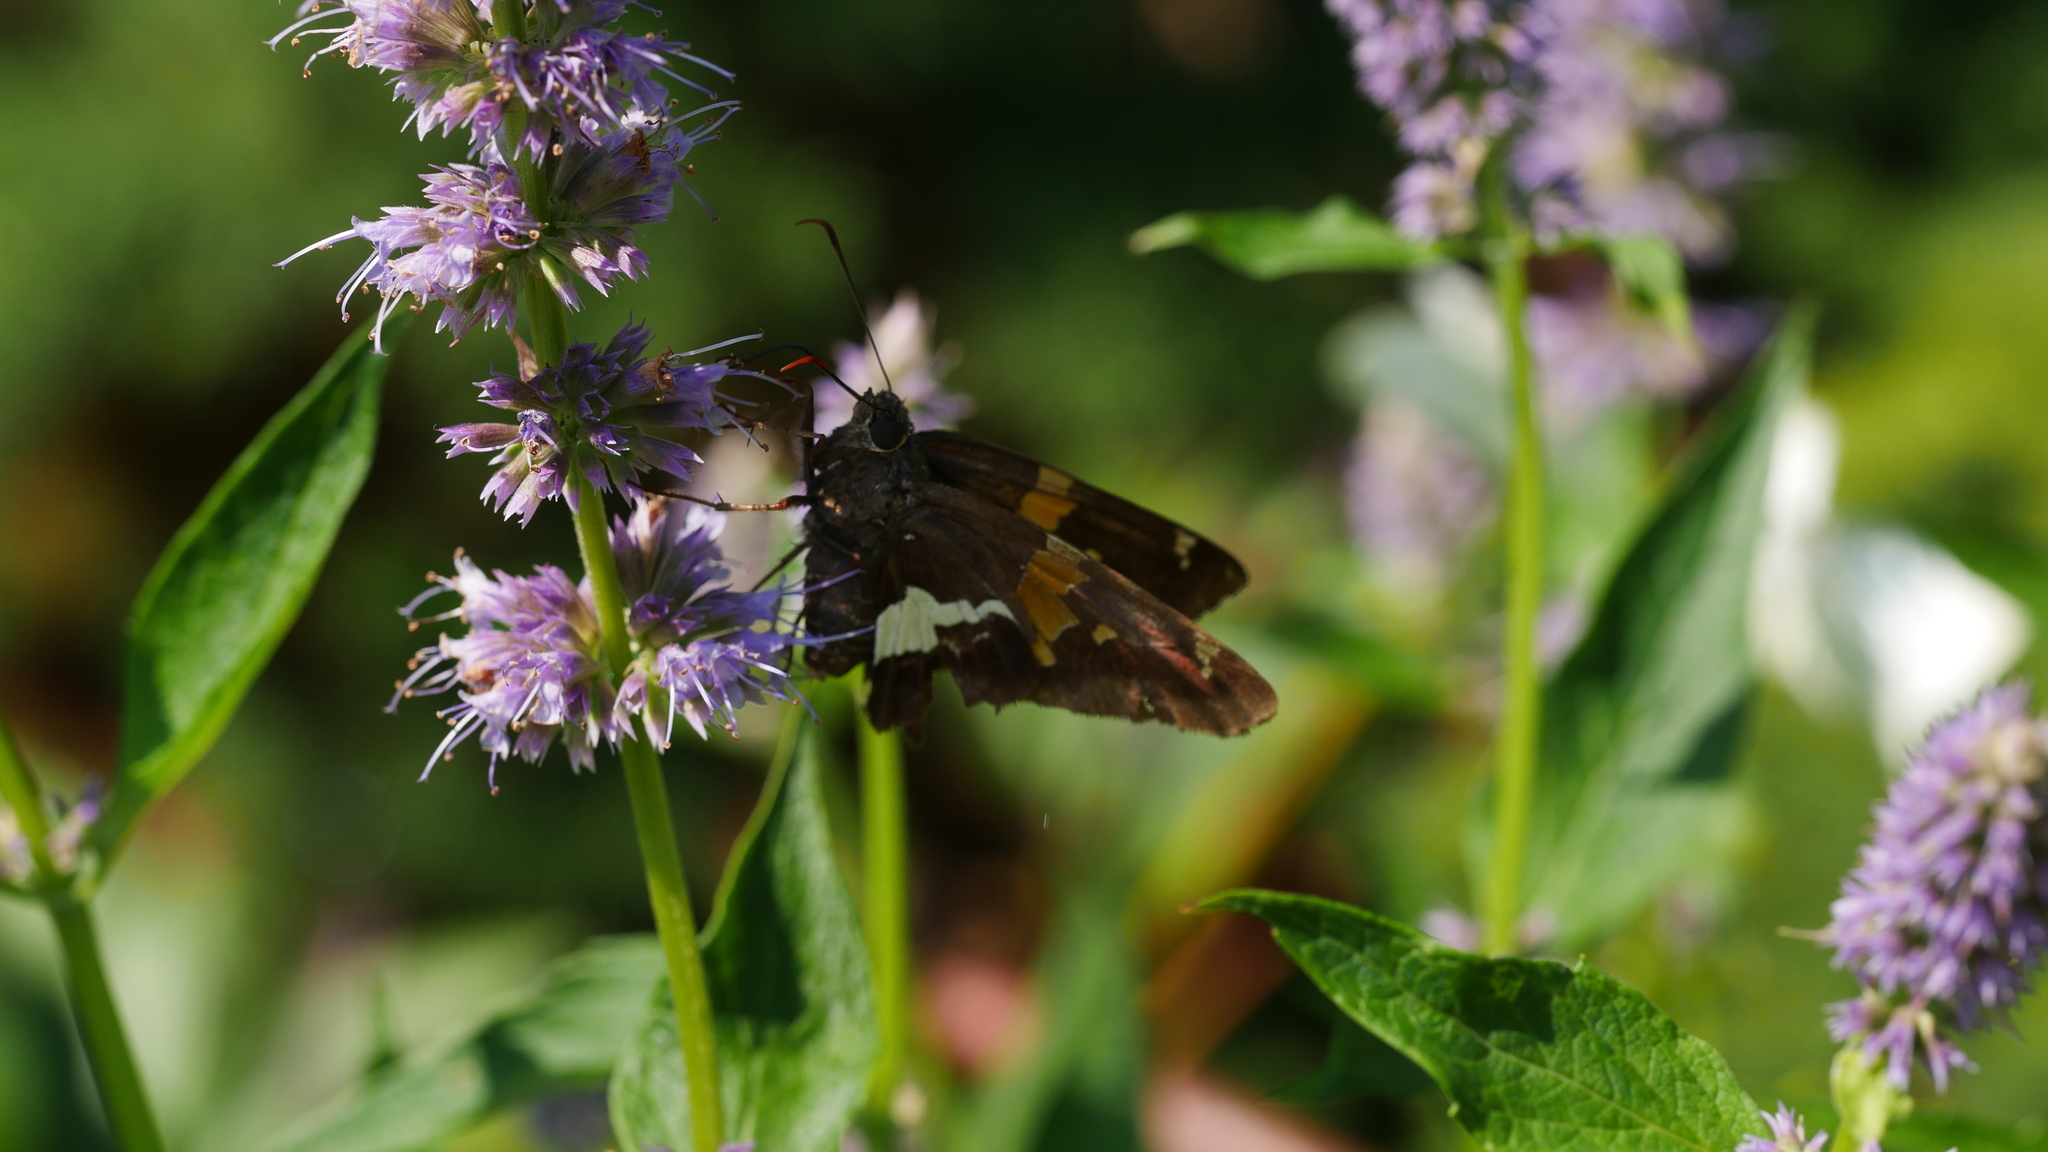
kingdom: Animalia
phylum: Arthropoda
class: Insecta
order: Lepidoptera
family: Hesperiidae
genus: Epargyreus
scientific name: Epargyreus clarus
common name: Silver-spotted skipper
